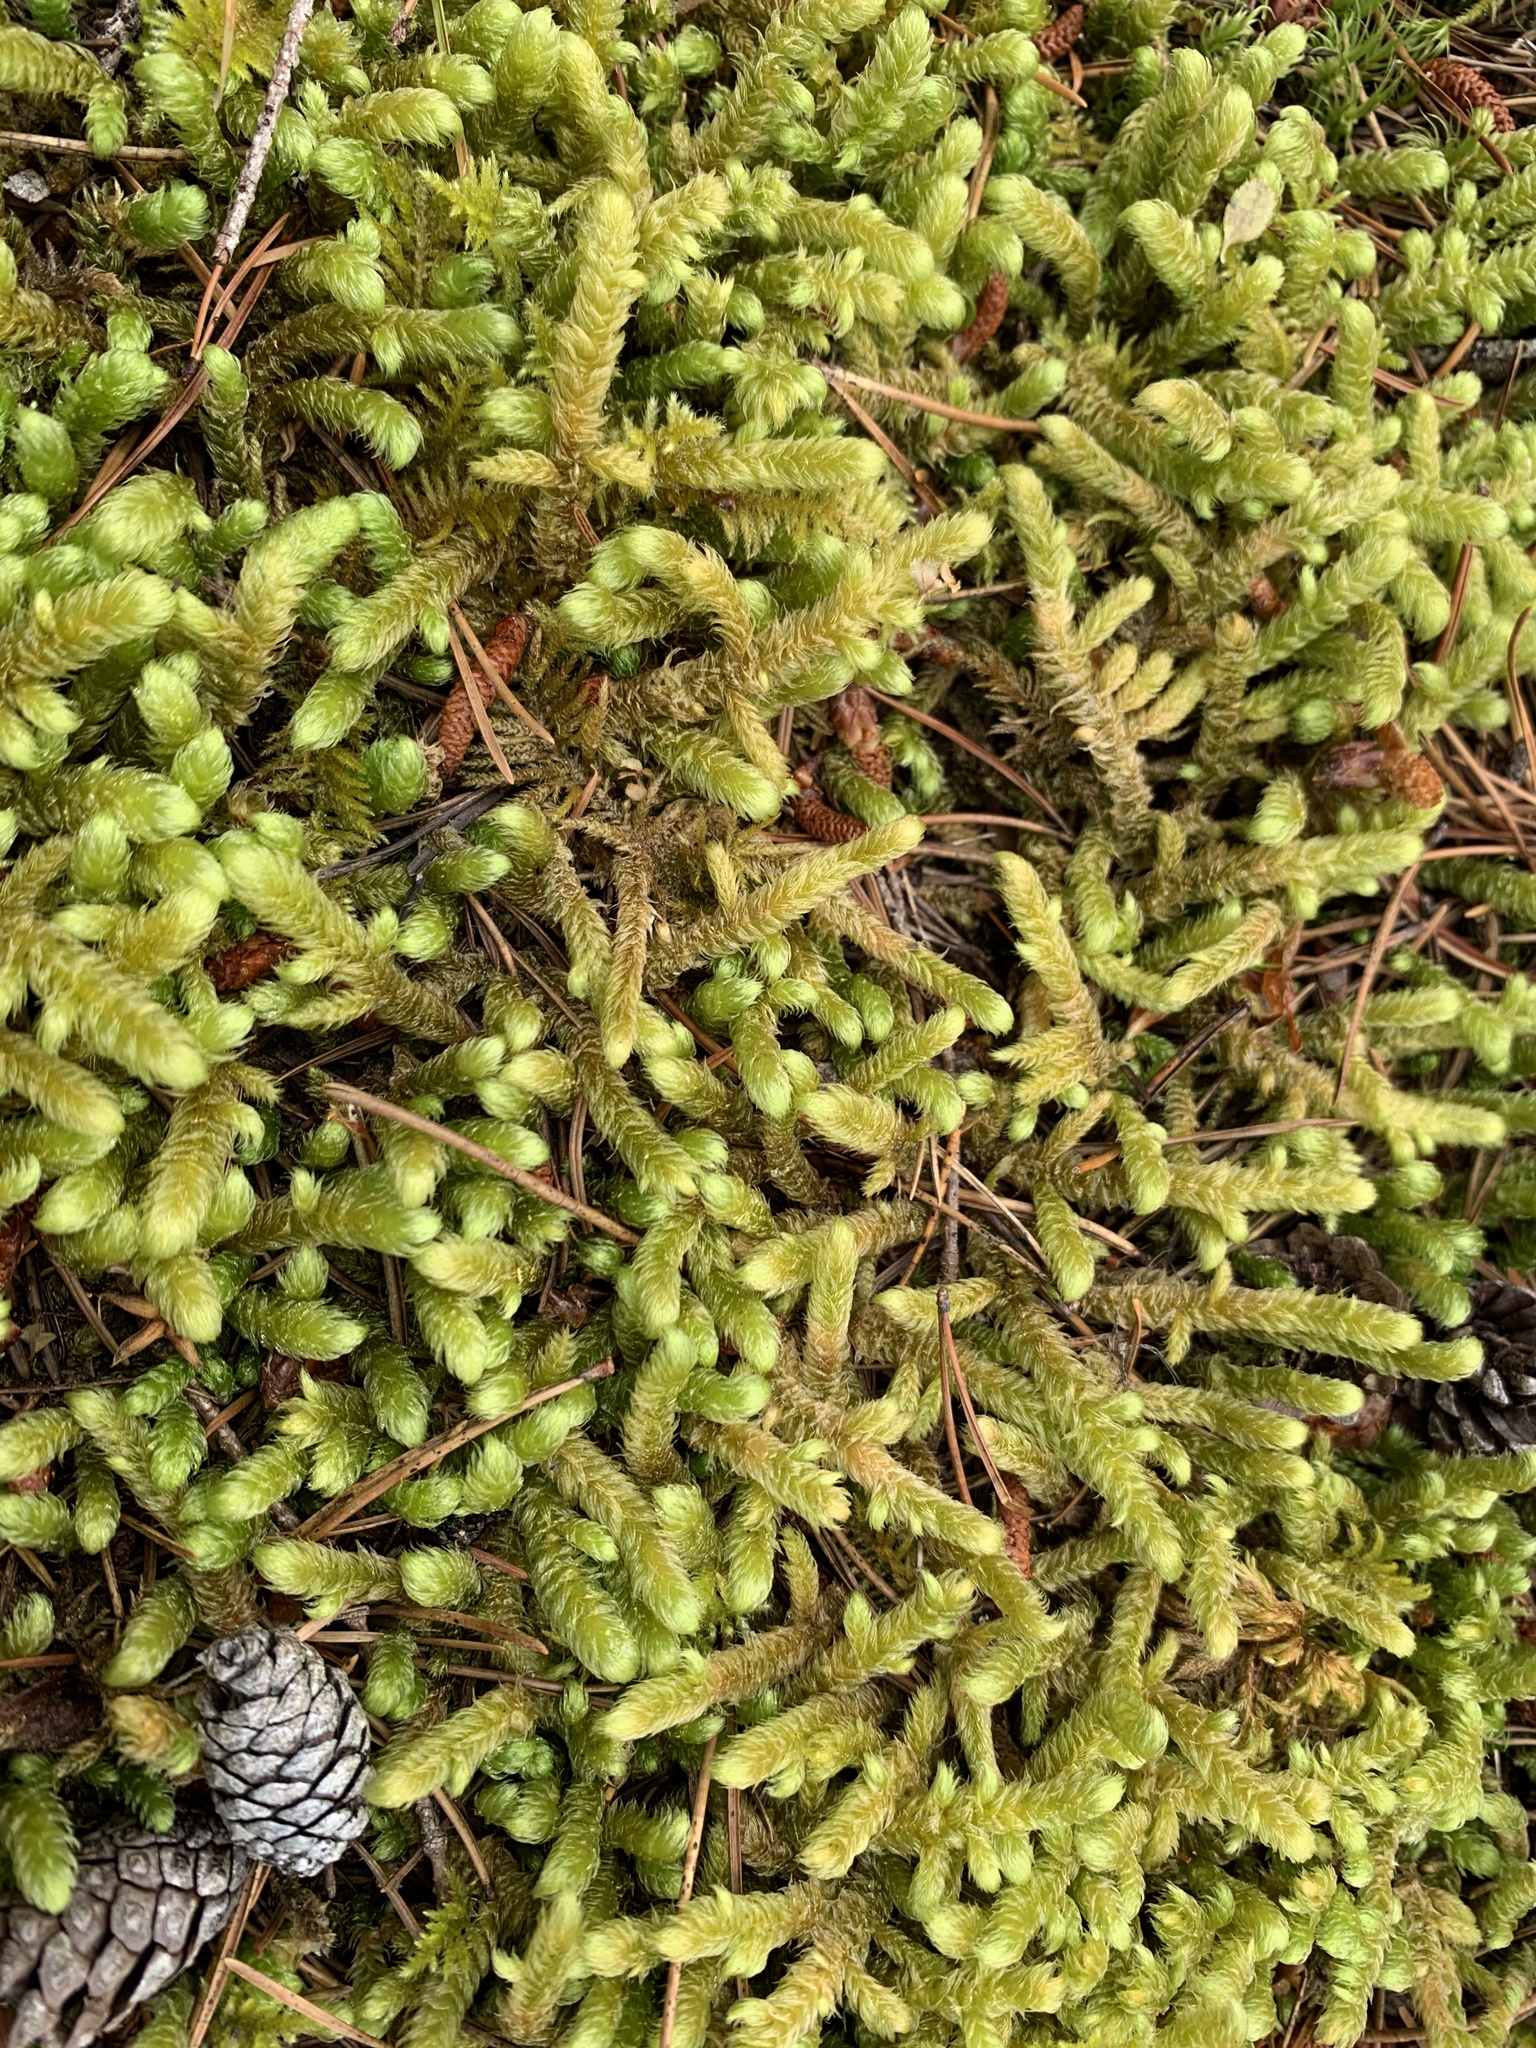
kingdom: Plantae
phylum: Bryophyta
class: Bryopsida
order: Hypnales
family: Hylocomiaceae
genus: Rhytidiopsis
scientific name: Rhytidiopsis robusta
